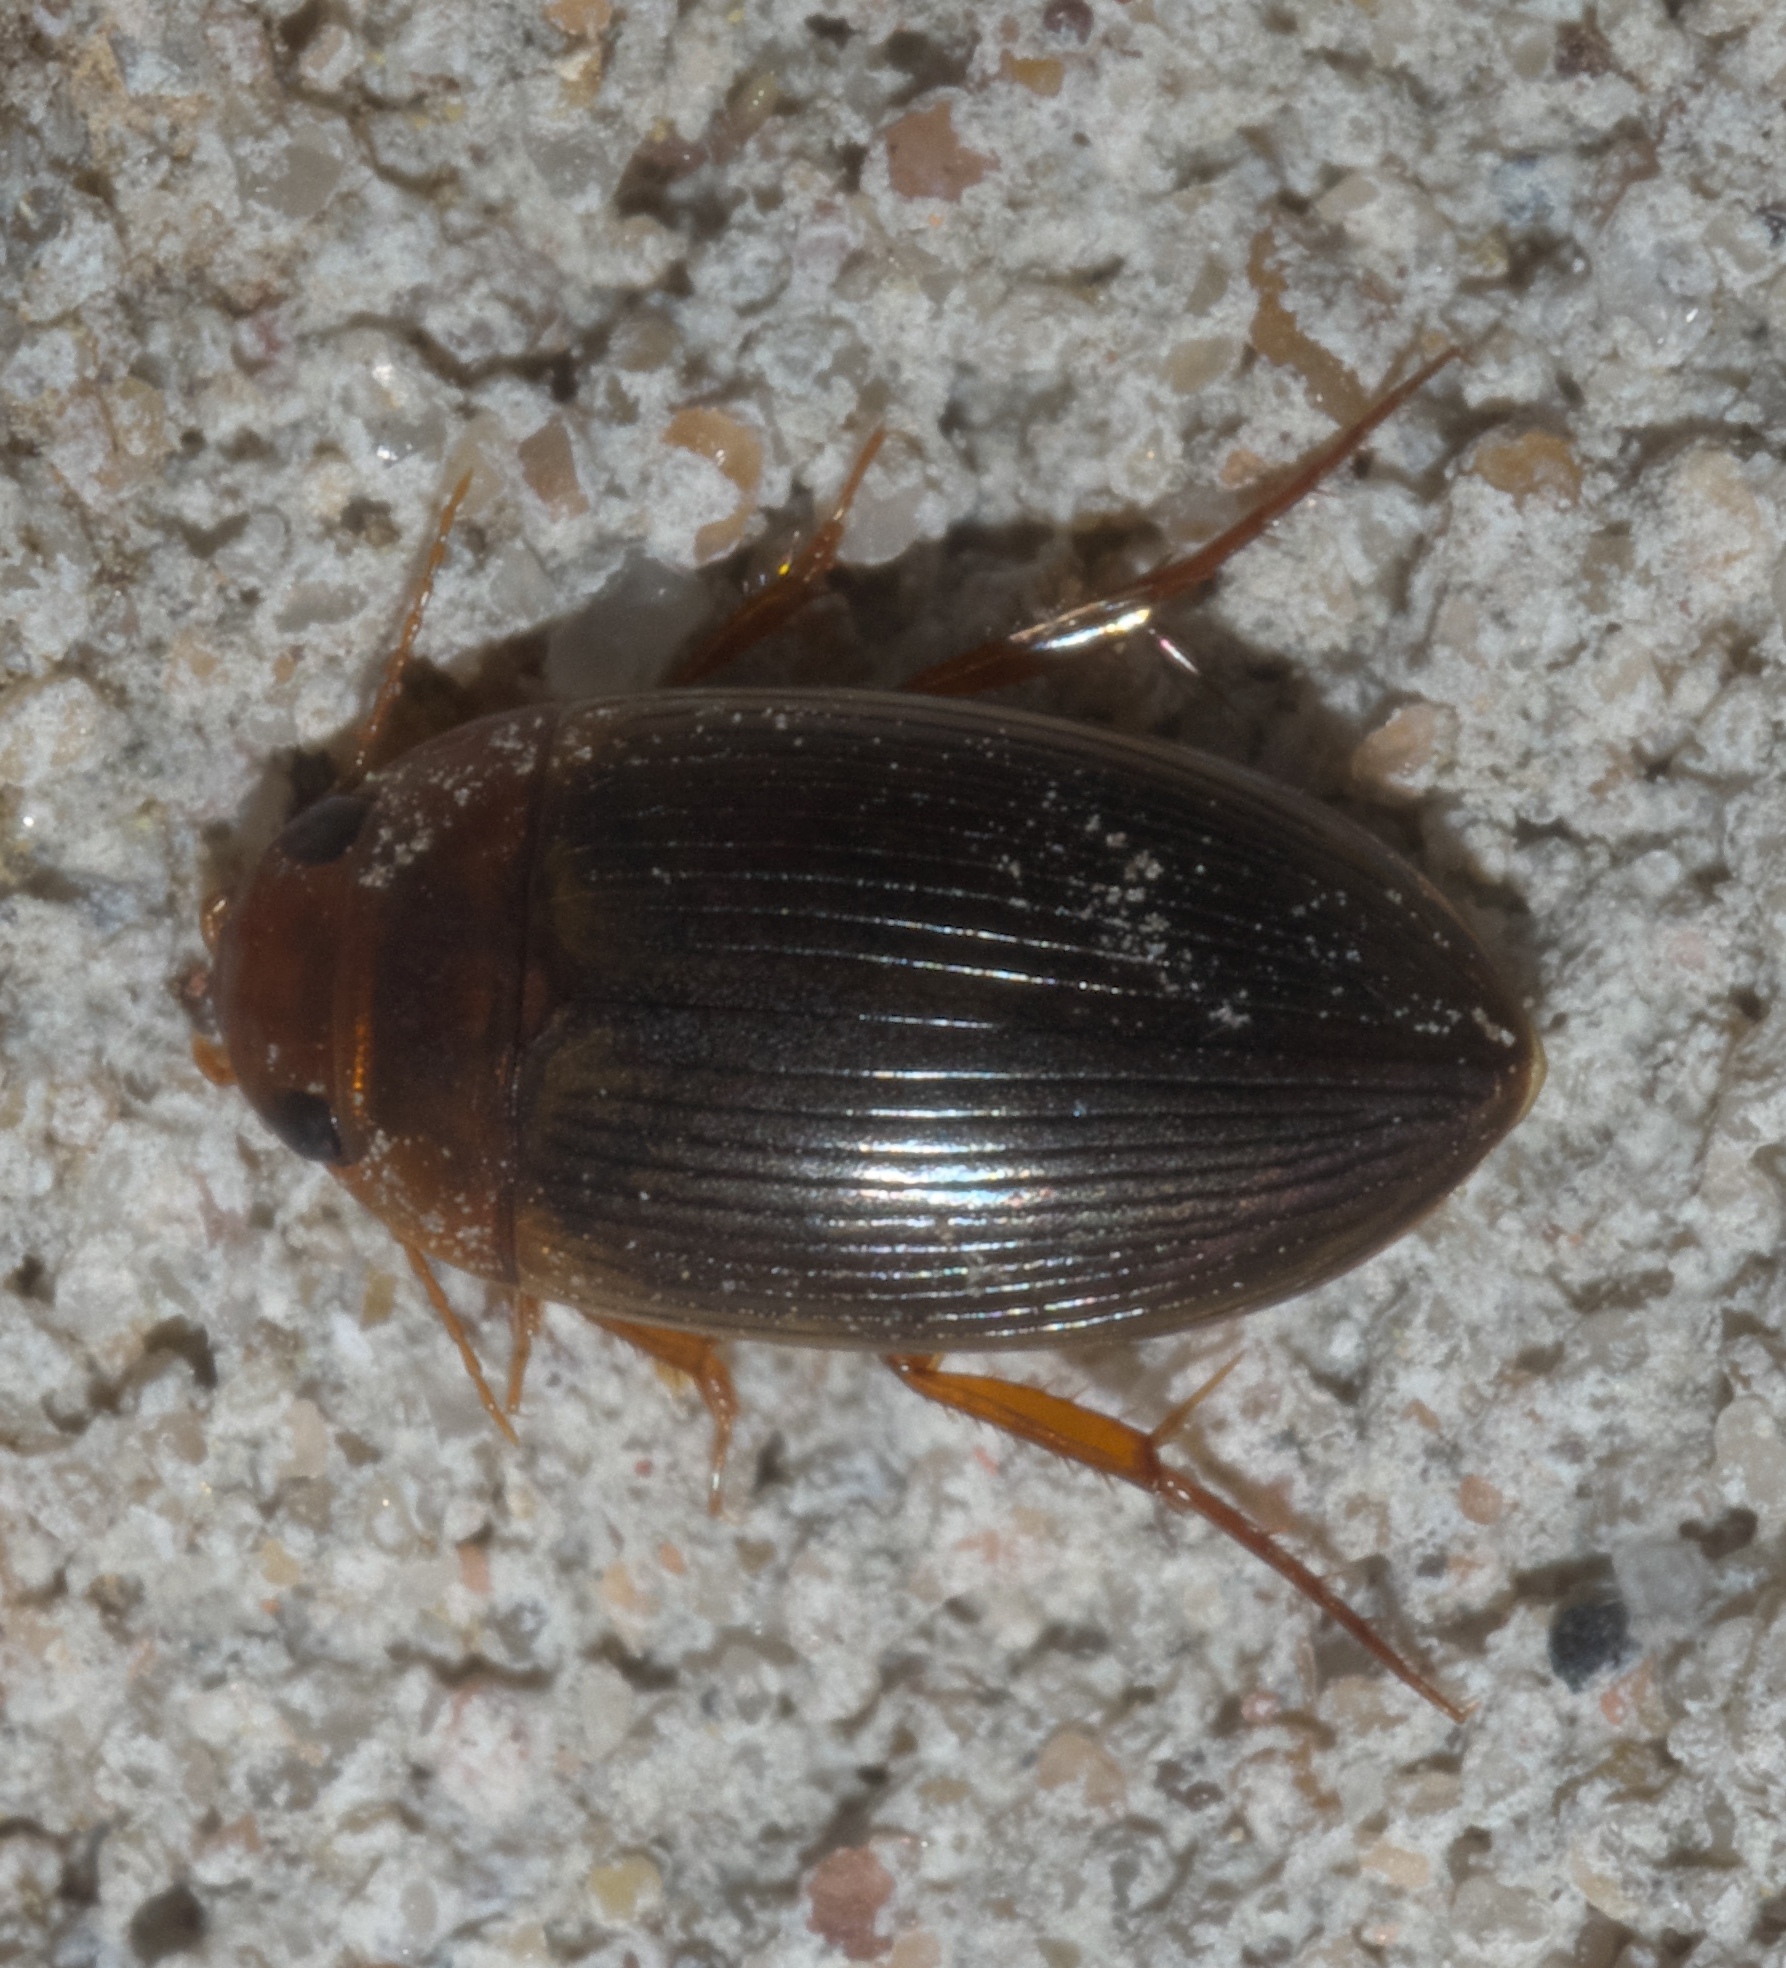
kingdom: Animalia
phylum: Arthropoda
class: Insecta
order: Coleoptera
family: Dytiscidae
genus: Copelatus
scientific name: Copelatus glyphicus
